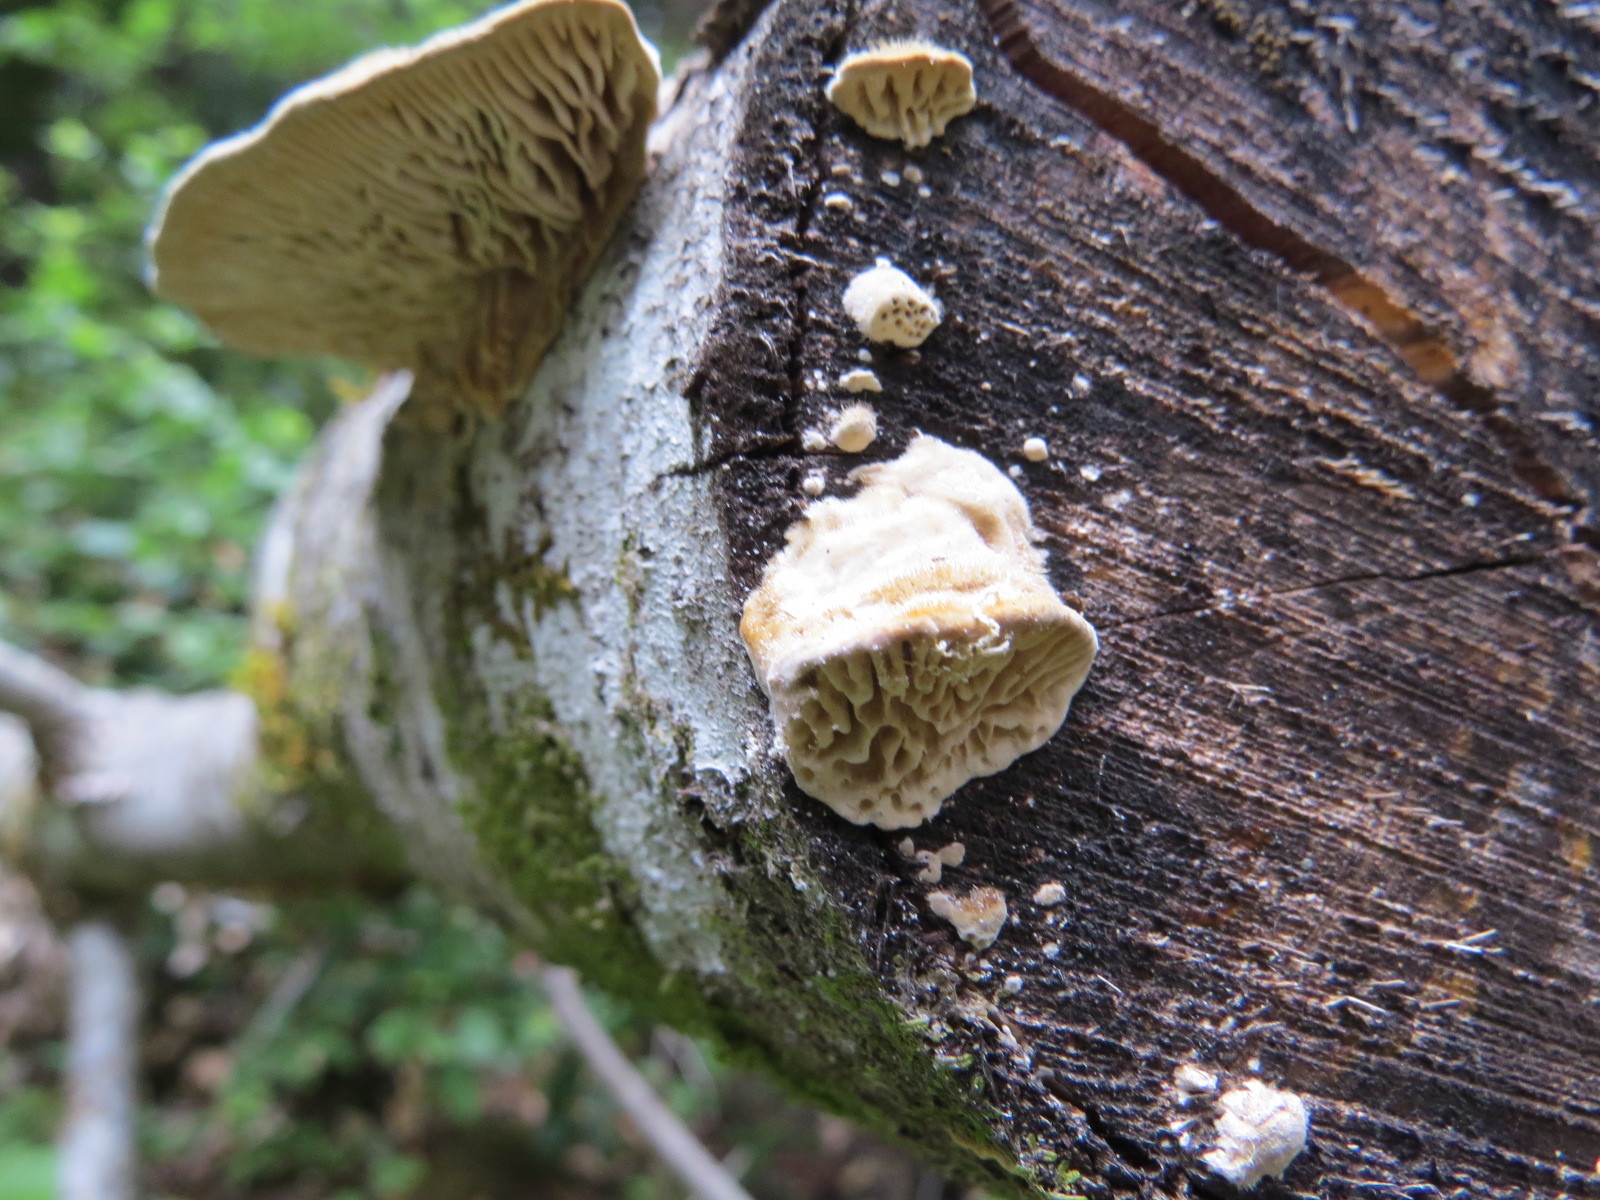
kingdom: Fungi
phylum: Basidiomycota
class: Agaricomycetes
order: Polyporales
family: Polyporaceae
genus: Lenzites
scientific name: Lenzites betulinus
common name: Birch mazegill
